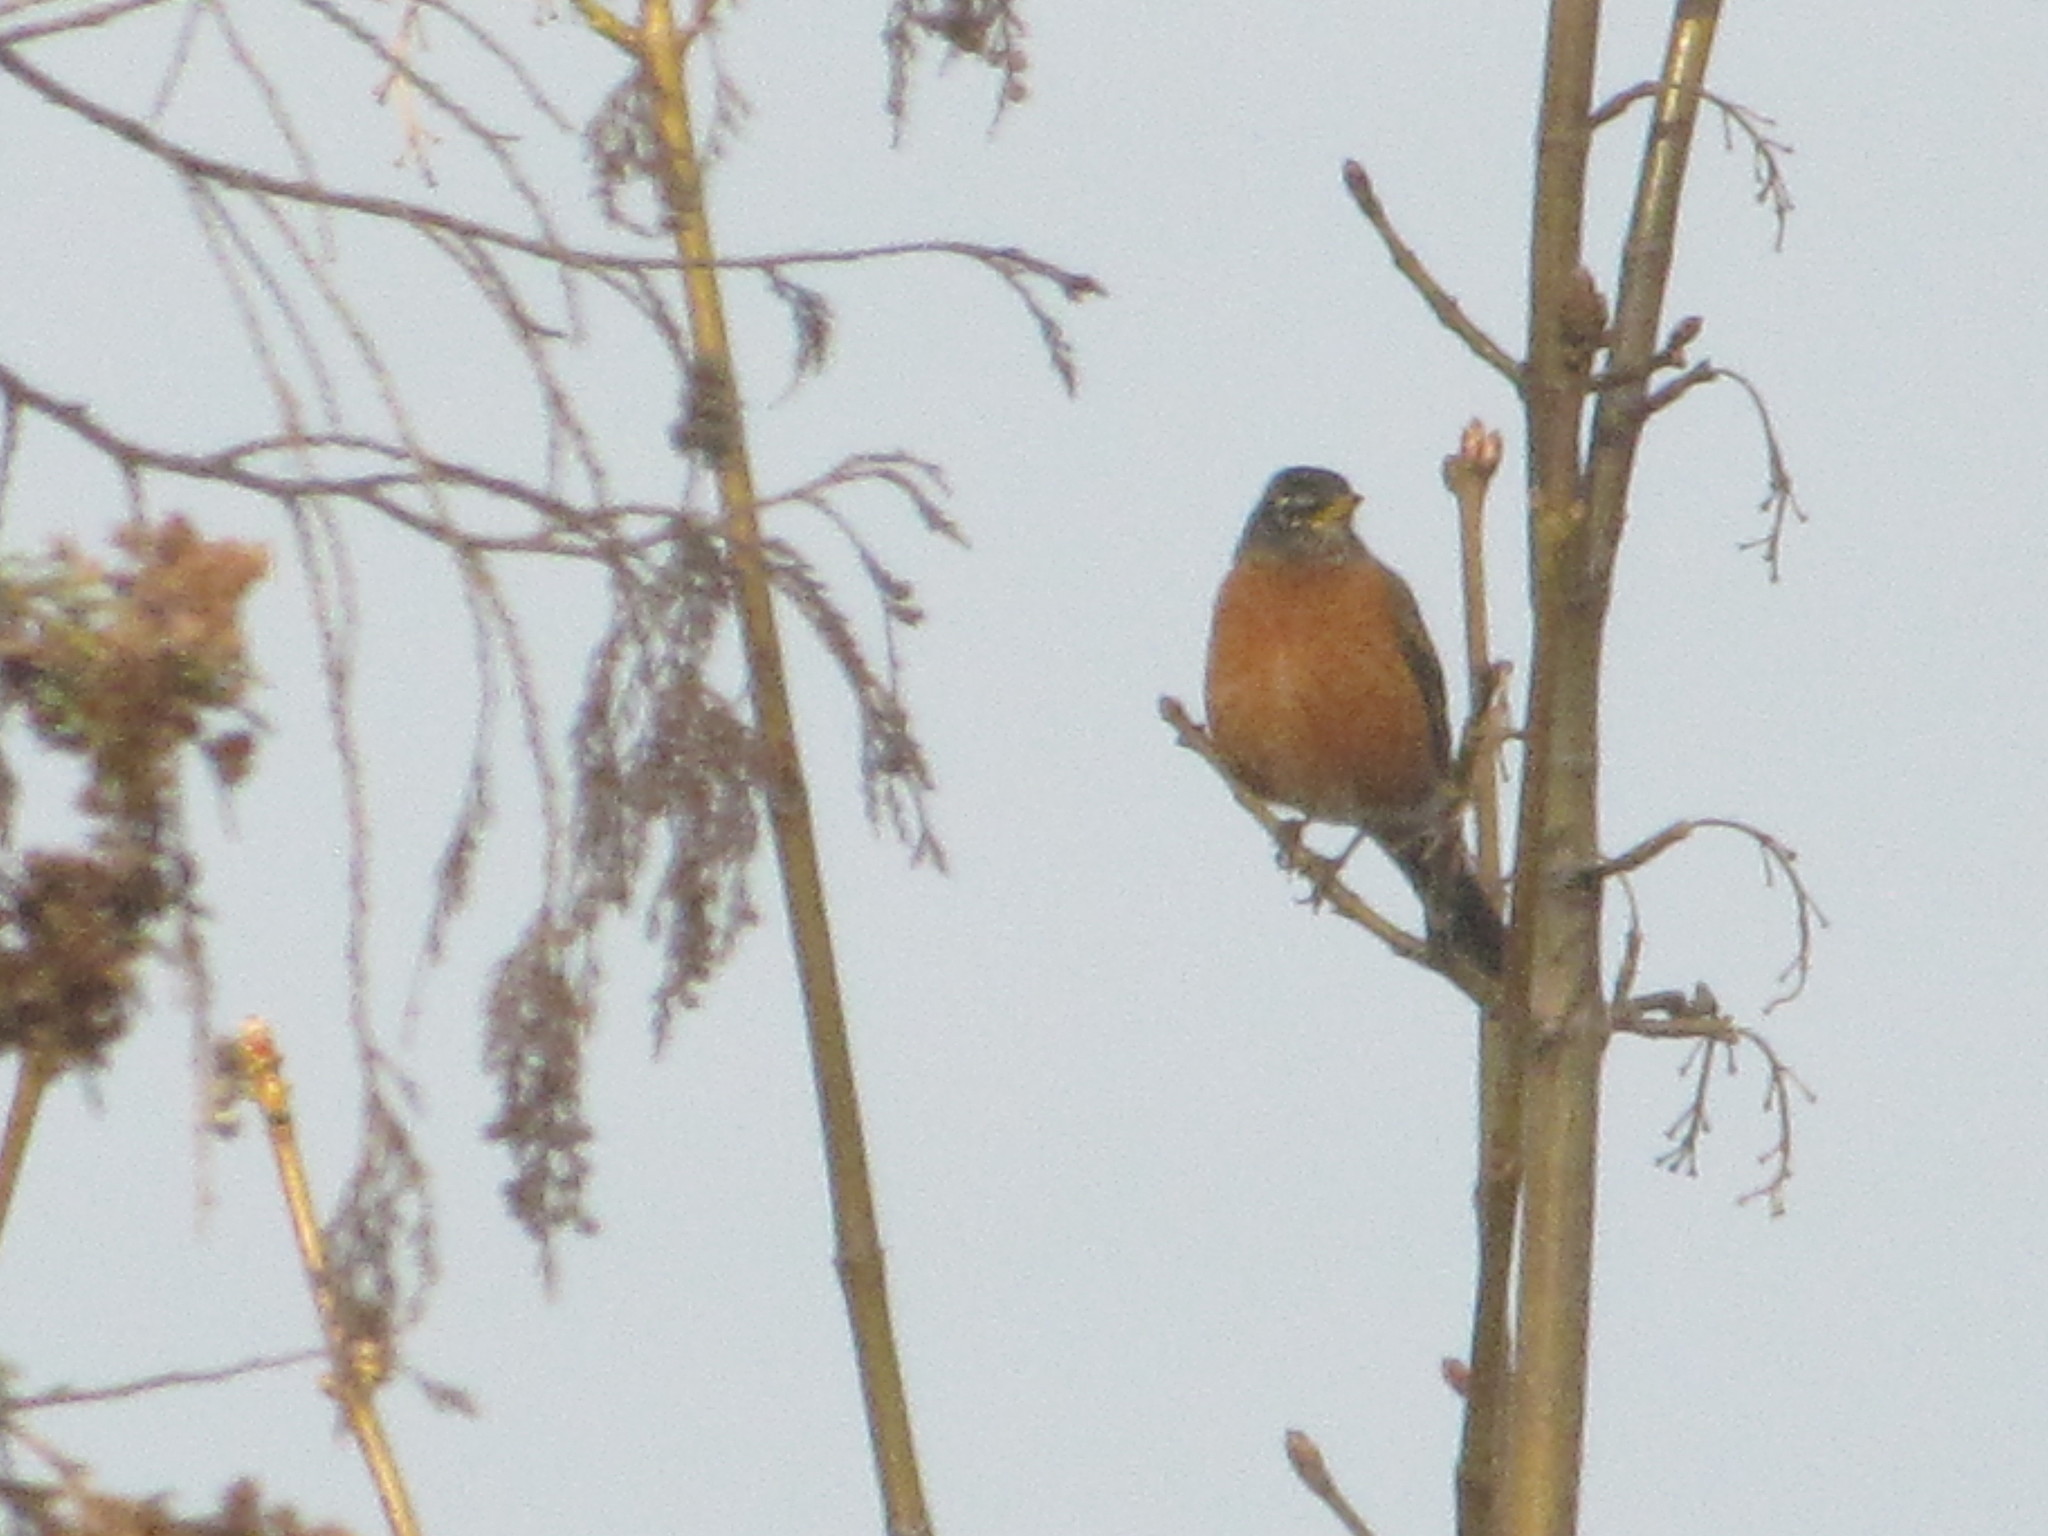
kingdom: Animalia
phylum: Chordata
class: Aves
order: Passeriformes
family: Turdidae
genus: Turdus
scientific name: Turdus migratorius
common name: American robin
